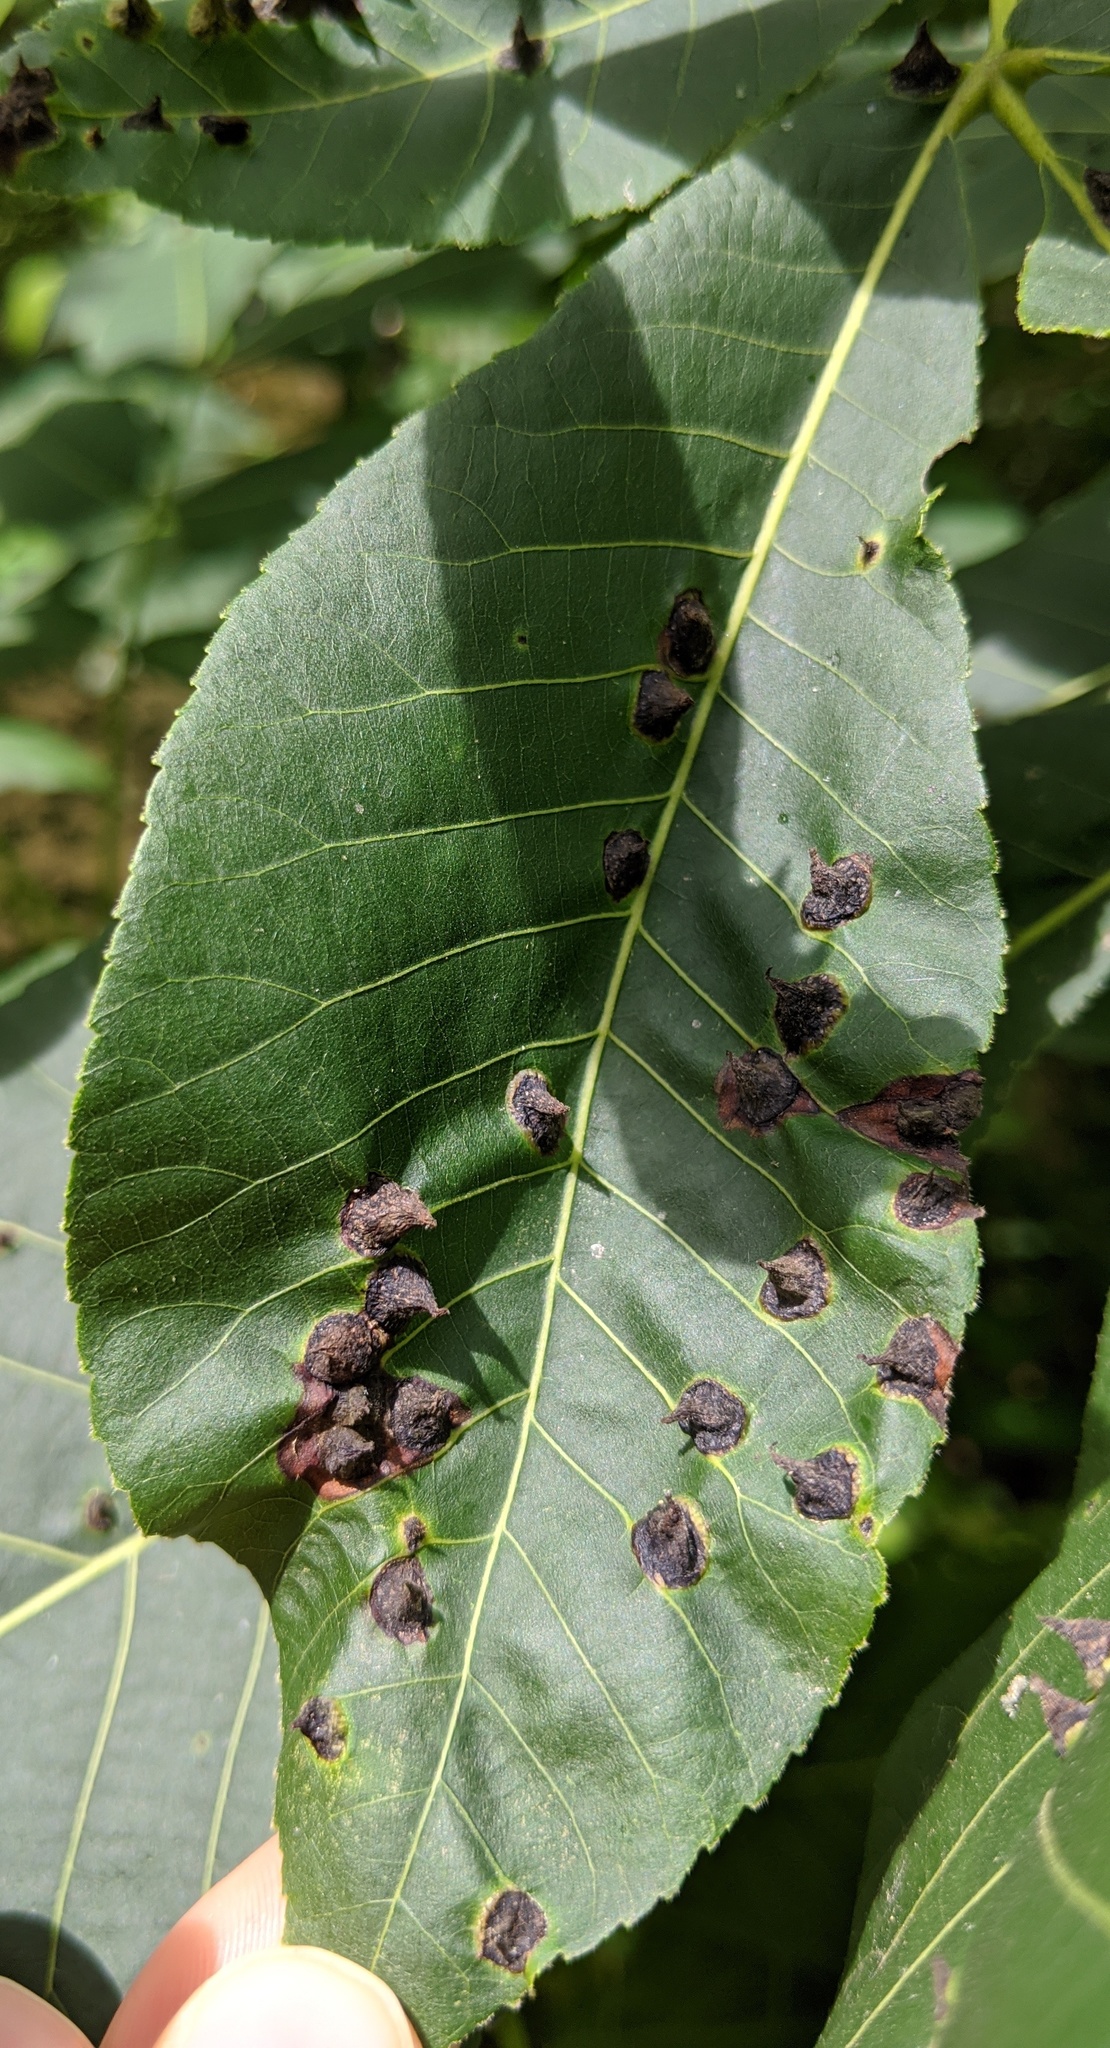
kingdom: Animalia
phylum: Arthropoda
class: Insecta
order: Hemiptera
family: Phylloxeridae
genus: Phylloxera
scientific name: Phylloxera caryaefallax
